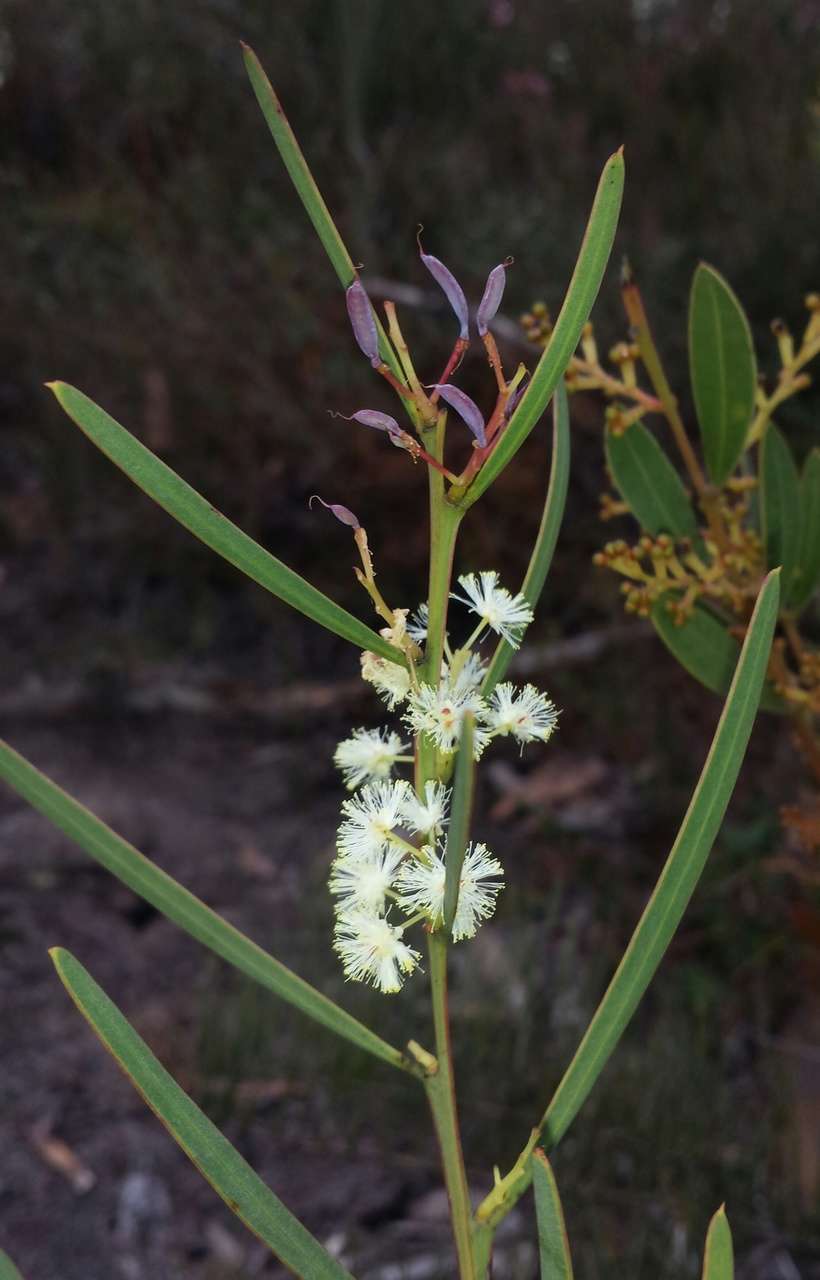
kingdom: Plantae
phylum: Tracheophyta
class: Magnoliopsida
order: Fabales
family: Fabaceae
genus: Acacia
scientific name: Acacia suaveolens
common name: Sweet acacia
